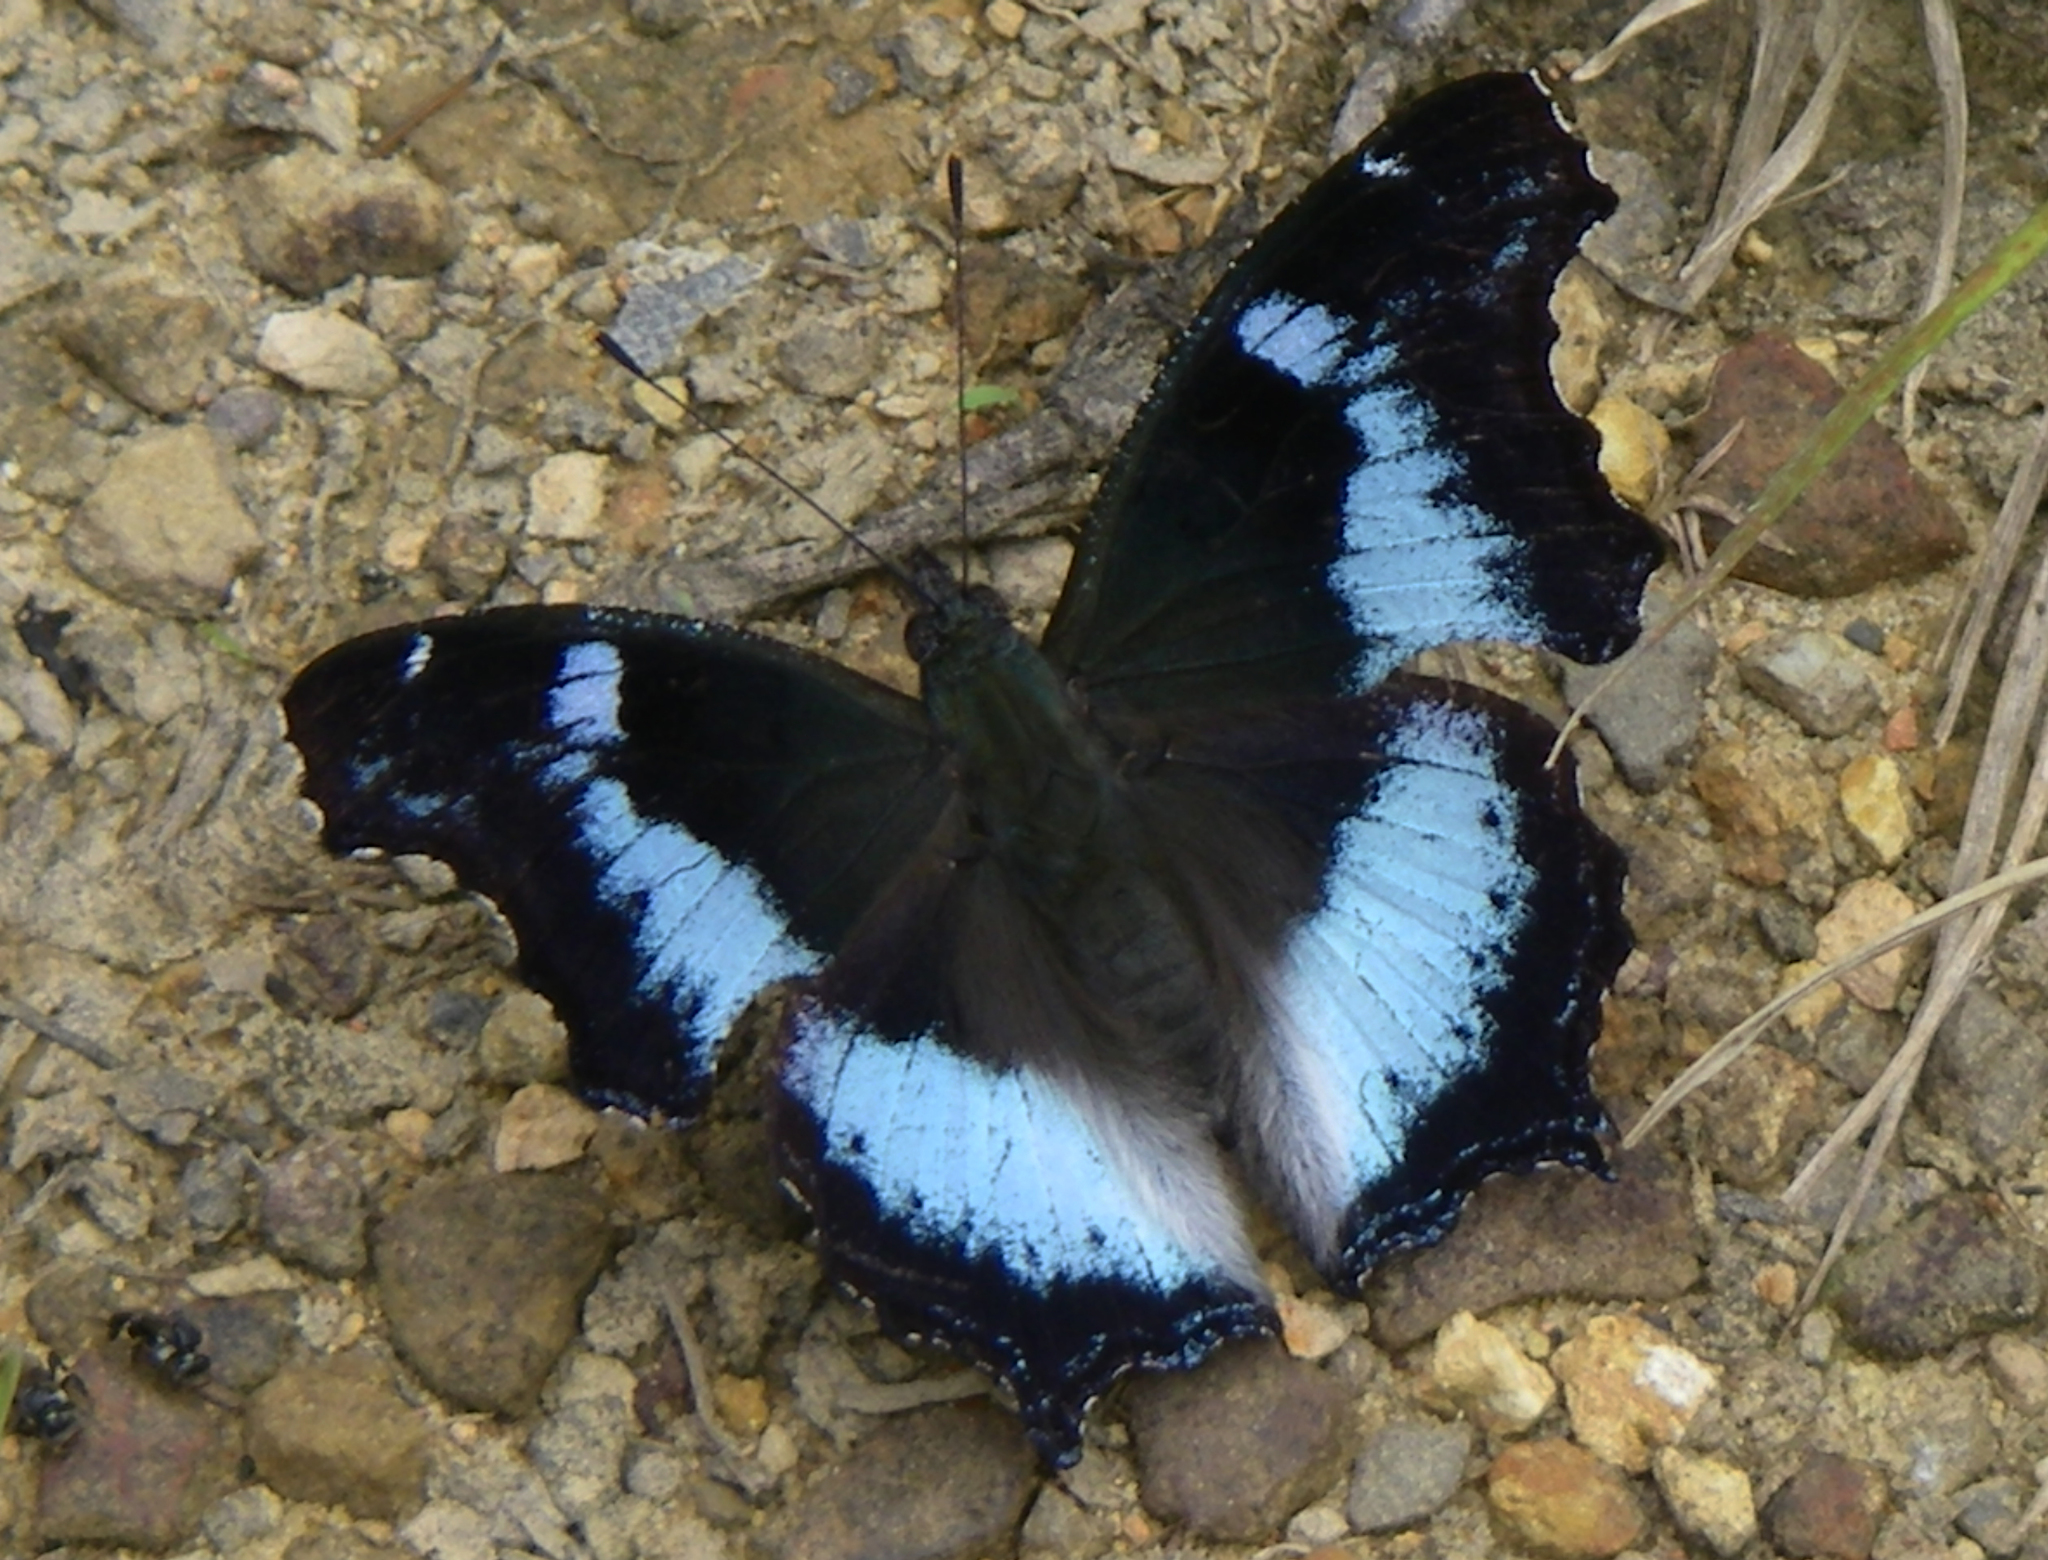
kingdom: Animalia
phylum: Arthropoda
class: Insecta
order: Lepidoptera
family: Nymphalidae
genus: Vanessa
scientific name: Vanessa Kaniska canace
